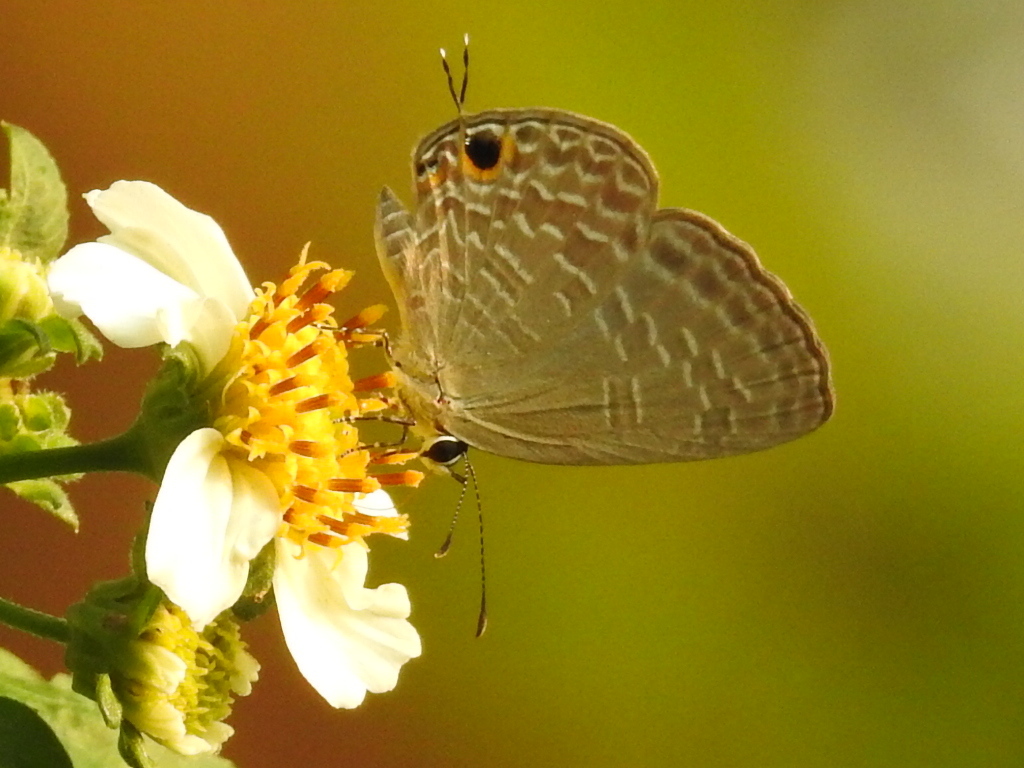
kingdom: Animalia
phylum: Arthropoda
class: Insecta
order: Lepidoptera
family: Lycaenidae
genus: Jamides
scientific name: Jamides bochus
